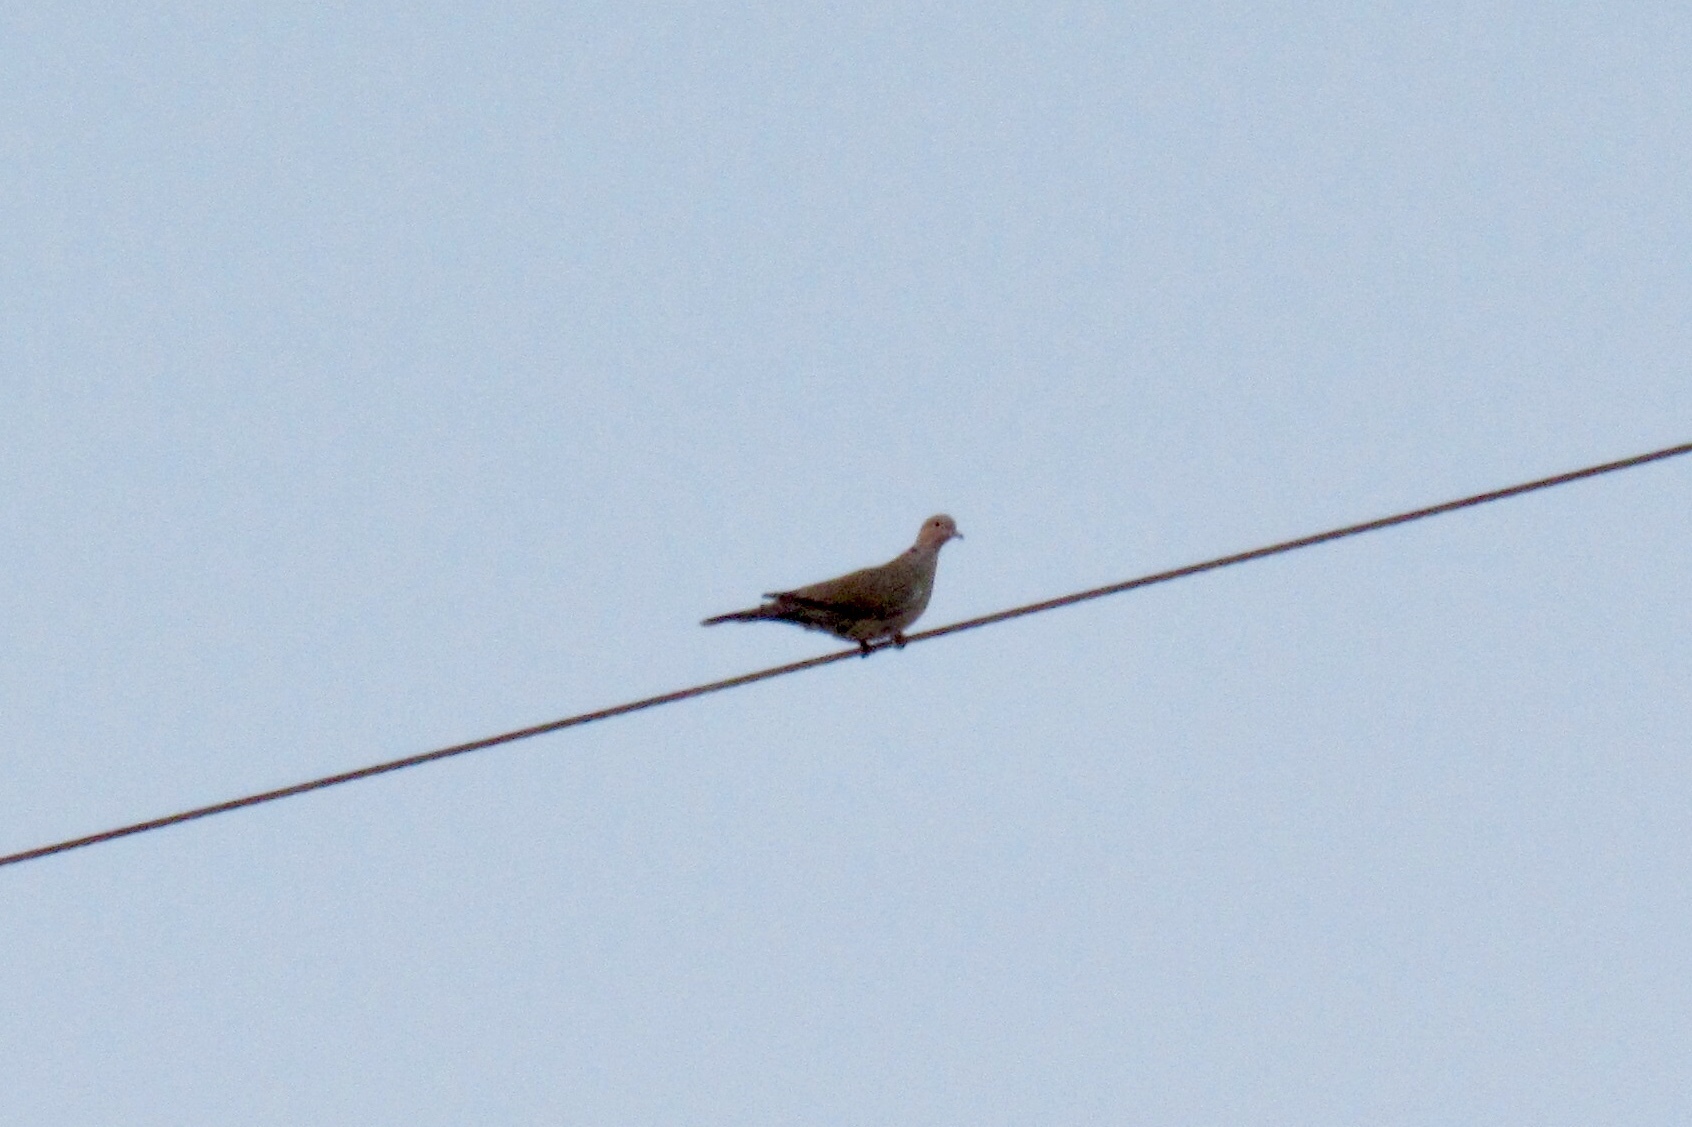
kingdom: Animalia
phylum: Chordata
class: Aves
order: Columbiformes
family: Columbidae
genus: Zenaida
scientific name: Zenaida macroura
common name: Mourning dove
